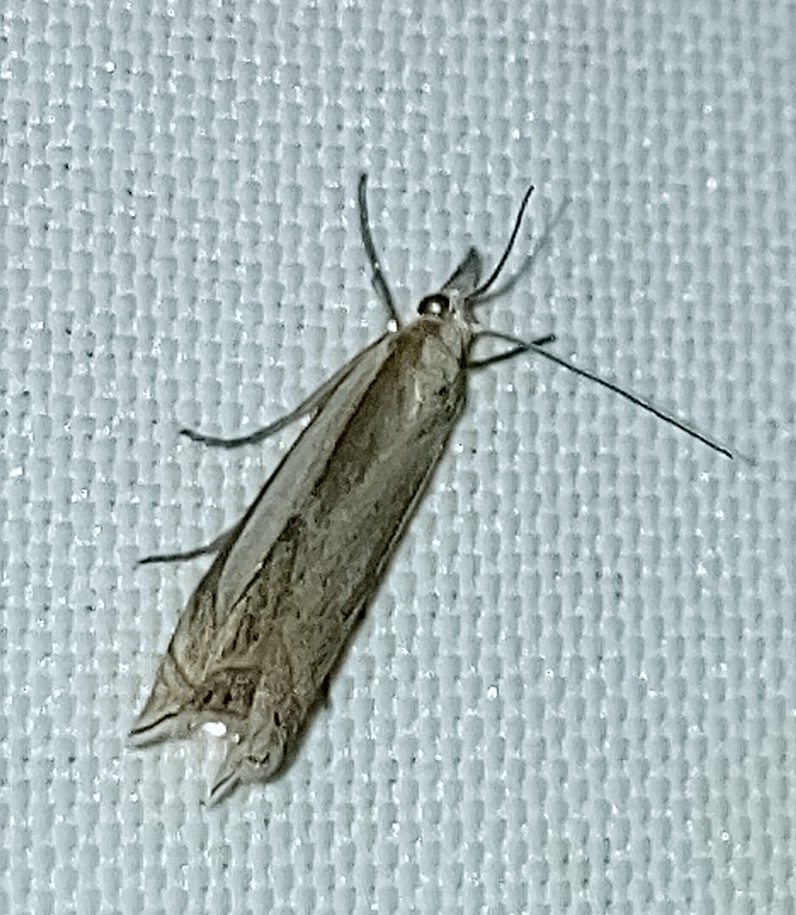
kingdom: Animalia
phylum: Arthropoda
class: Insecta
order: Lepidoptera
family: Crambidae
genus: Crambus
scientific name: Crambus pascuella
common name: Inlaid grass-veneer
